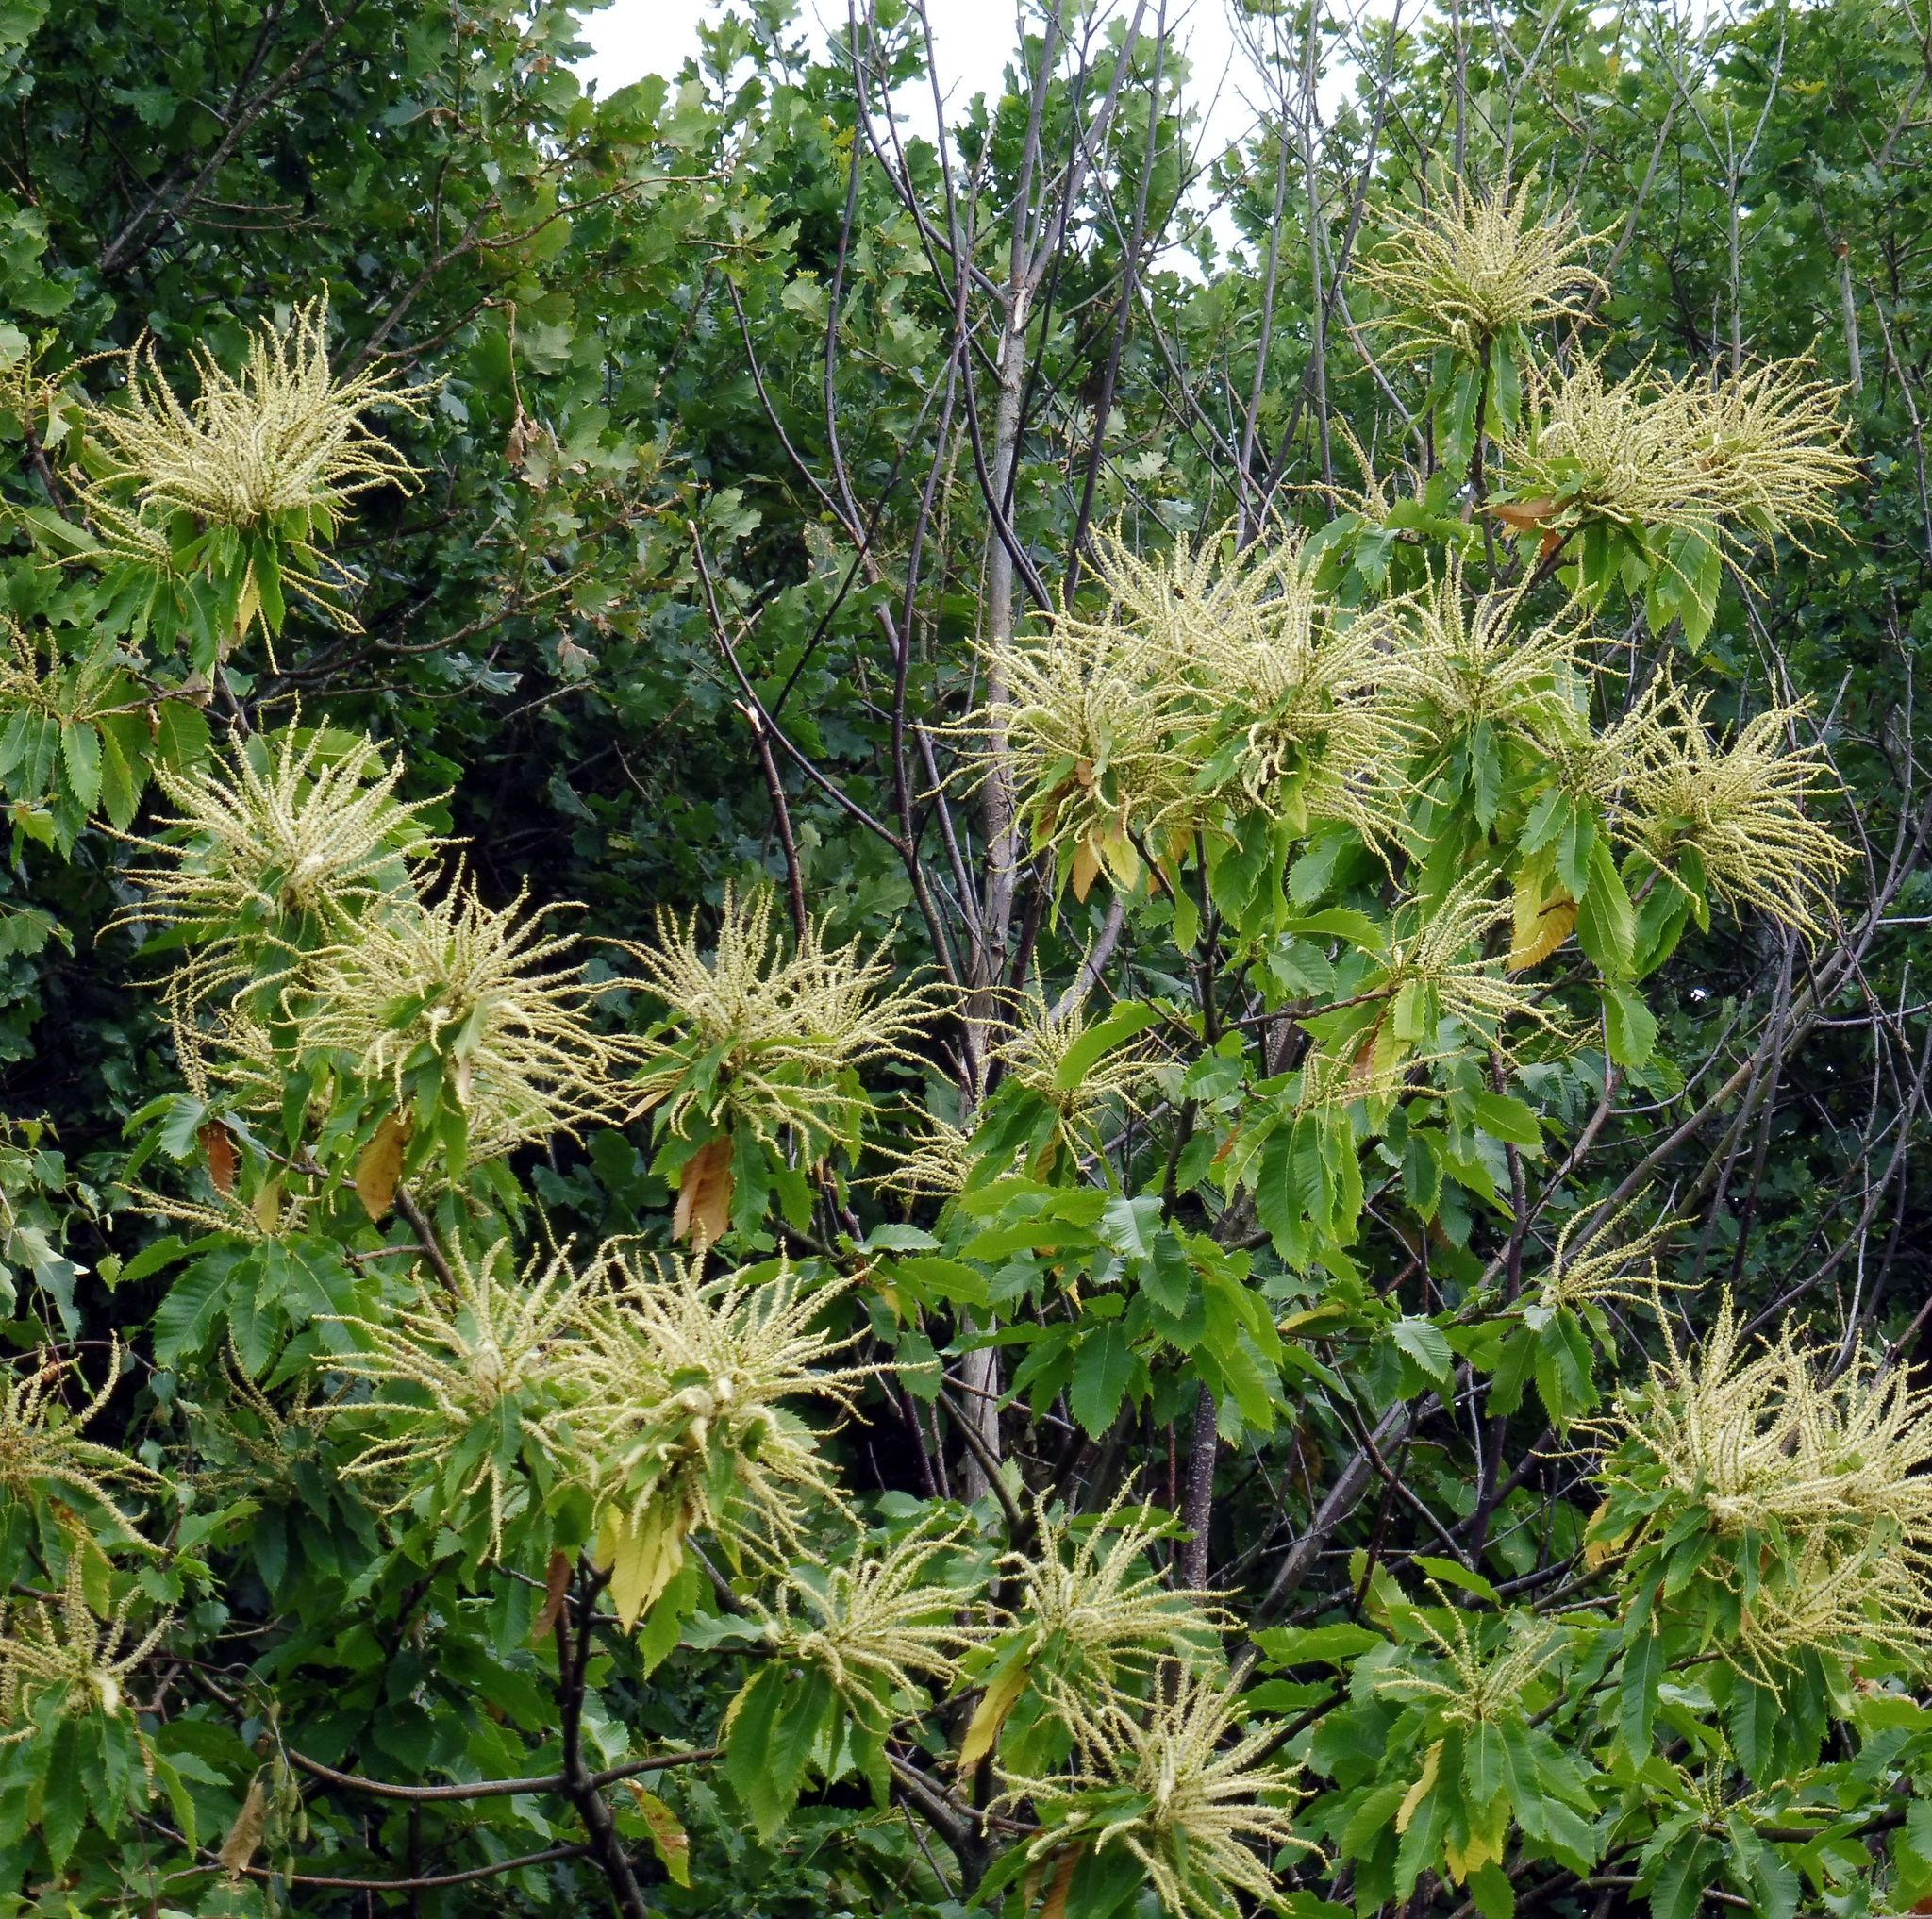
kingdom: Plantae
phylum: Tracheophyta
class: Magnoliopsida
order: Fagales
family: Fagaceae
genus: Castanea
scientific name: Castanea sativa
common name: Sweet chestnut
